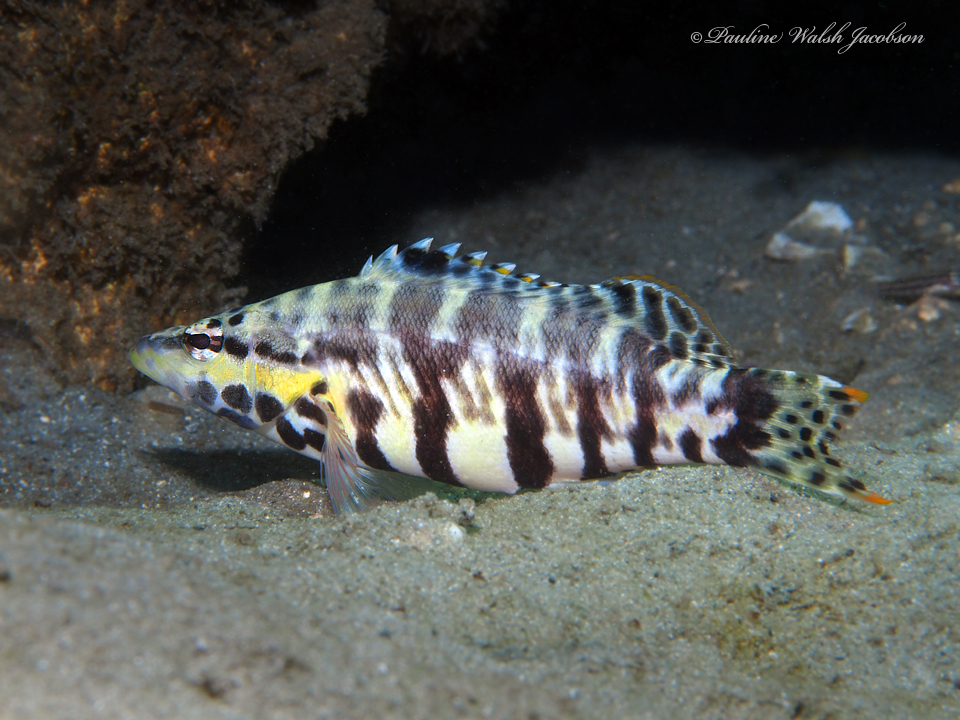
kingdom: Animalia
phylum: Chordata
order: Perciformes
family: Serranidae
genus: Serranus
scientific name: Serranus tigrinus
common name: Harlequin bass
